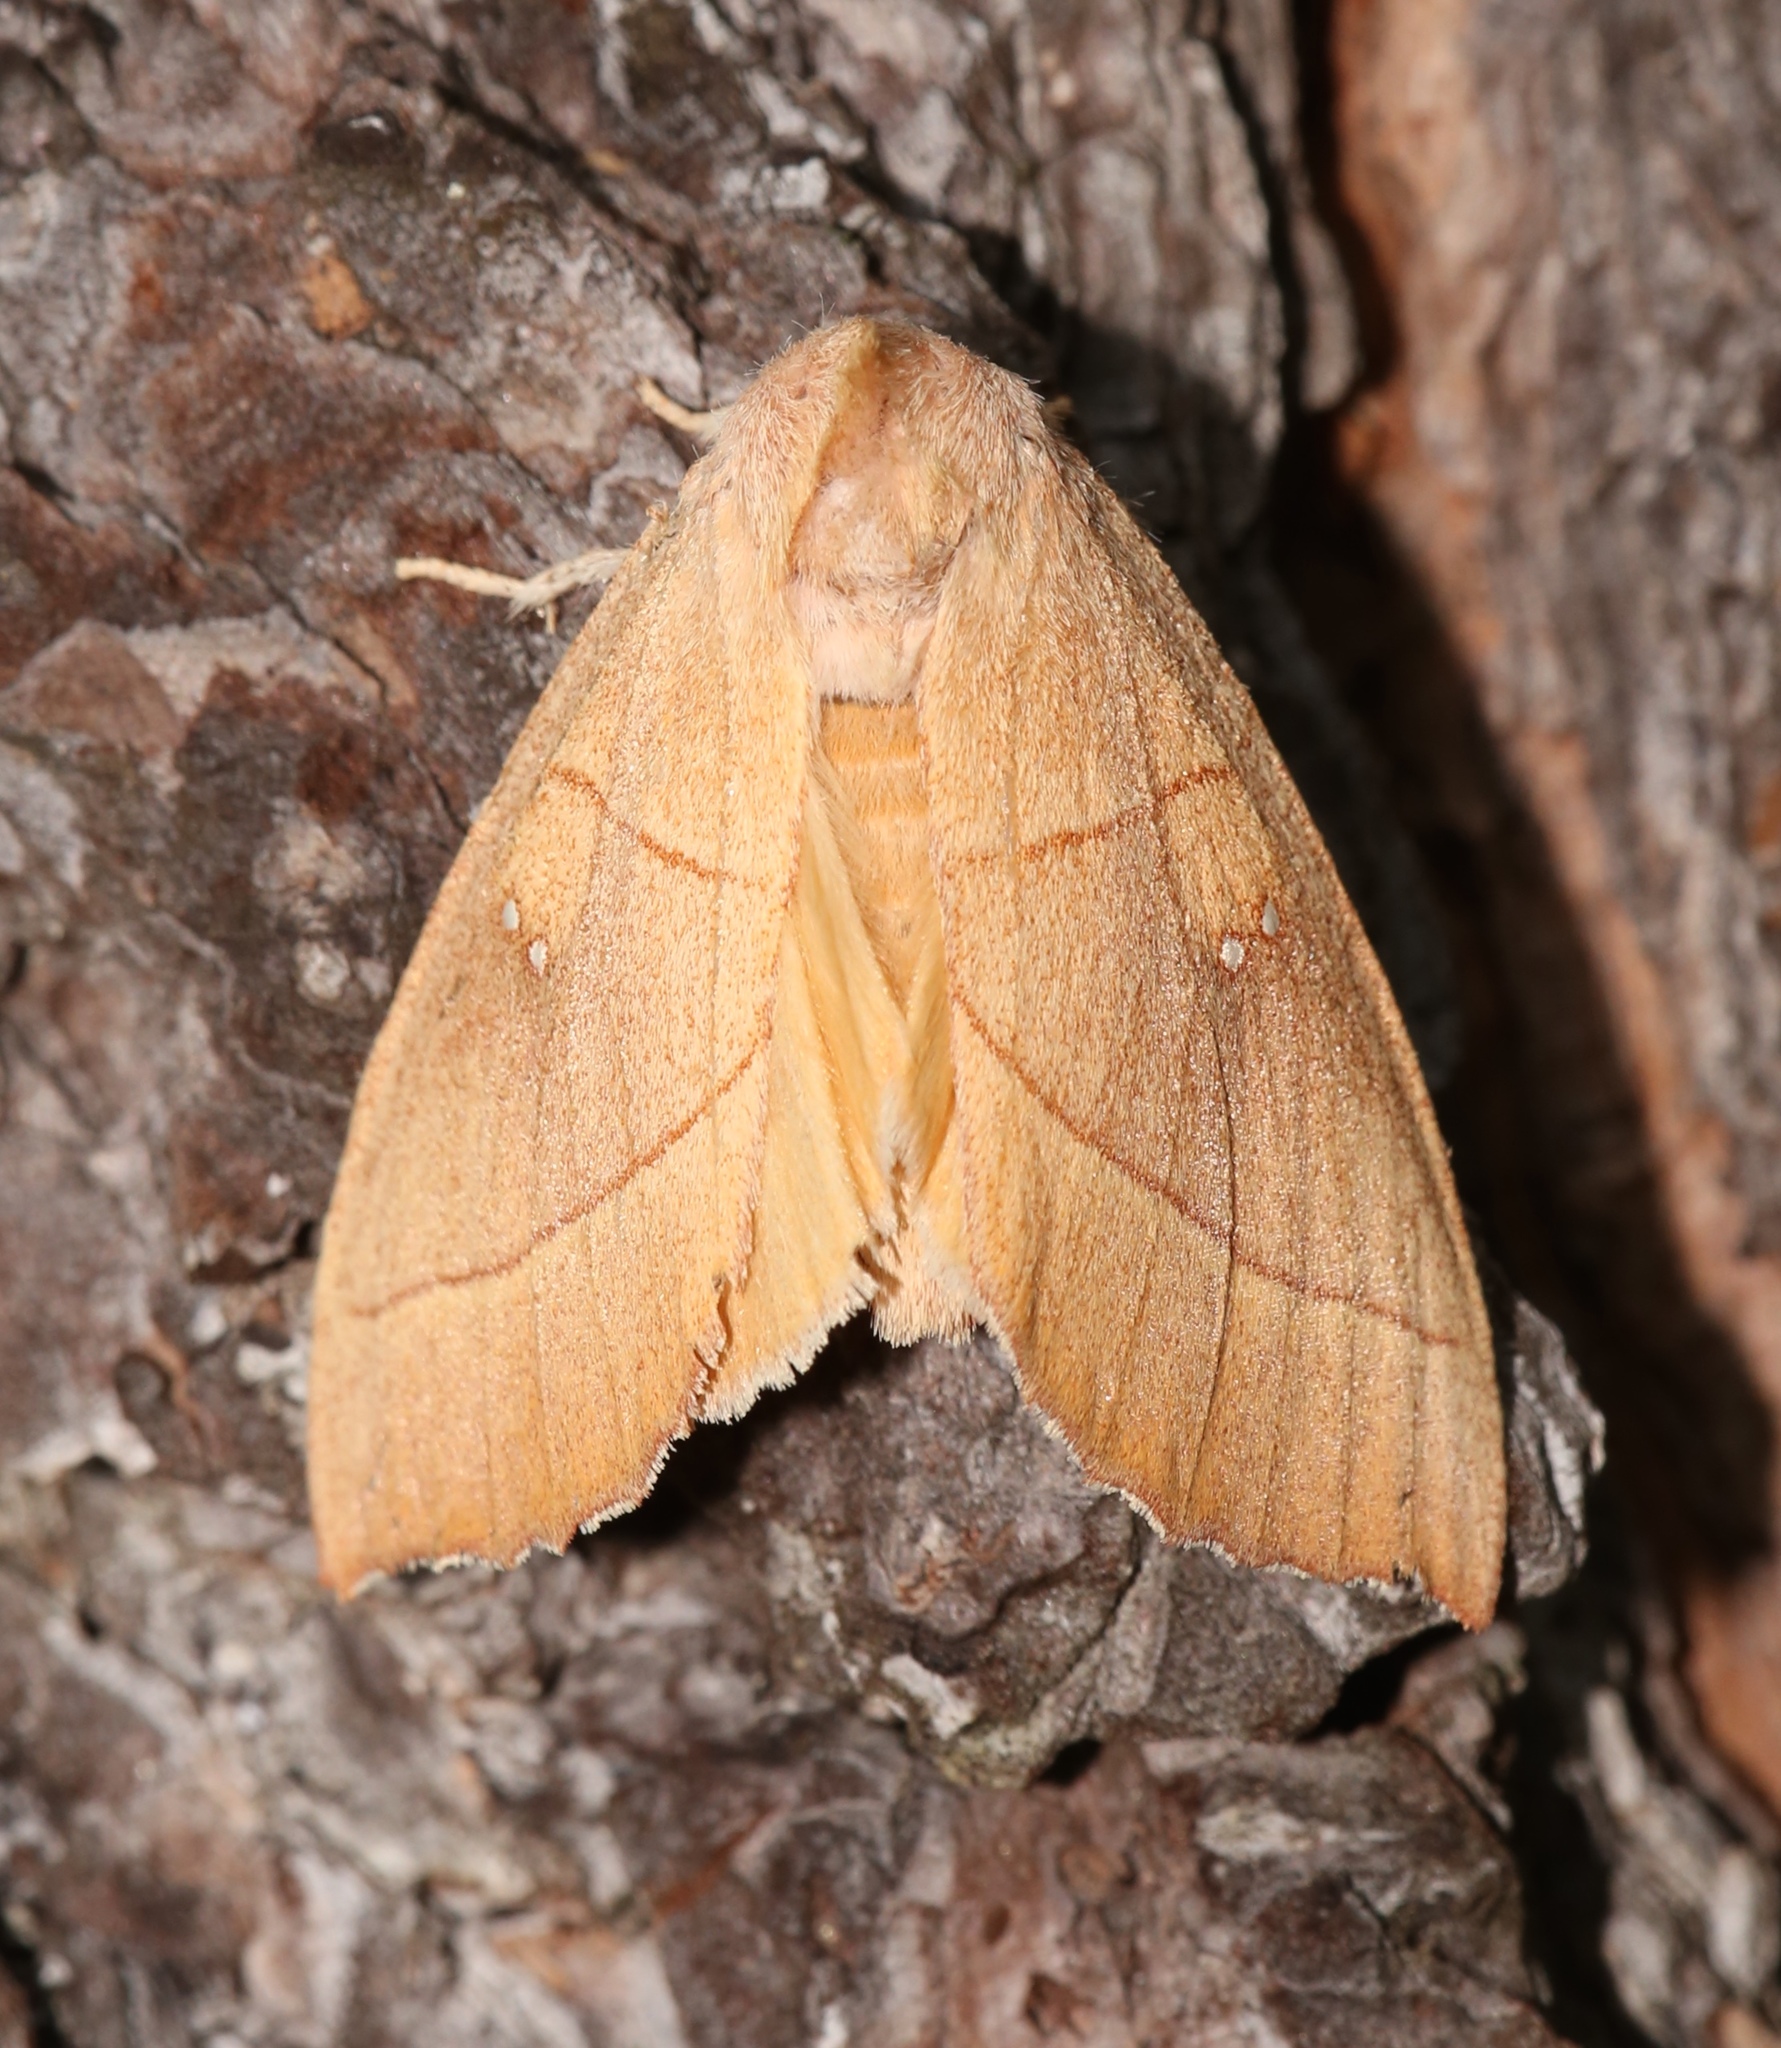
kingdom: Animalia
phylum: Arthropoda
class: Insecta
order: Lepidoptera
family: Notodontidae
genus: Nadata
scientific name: Nadata gibbosa
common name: White-dotted prominent
